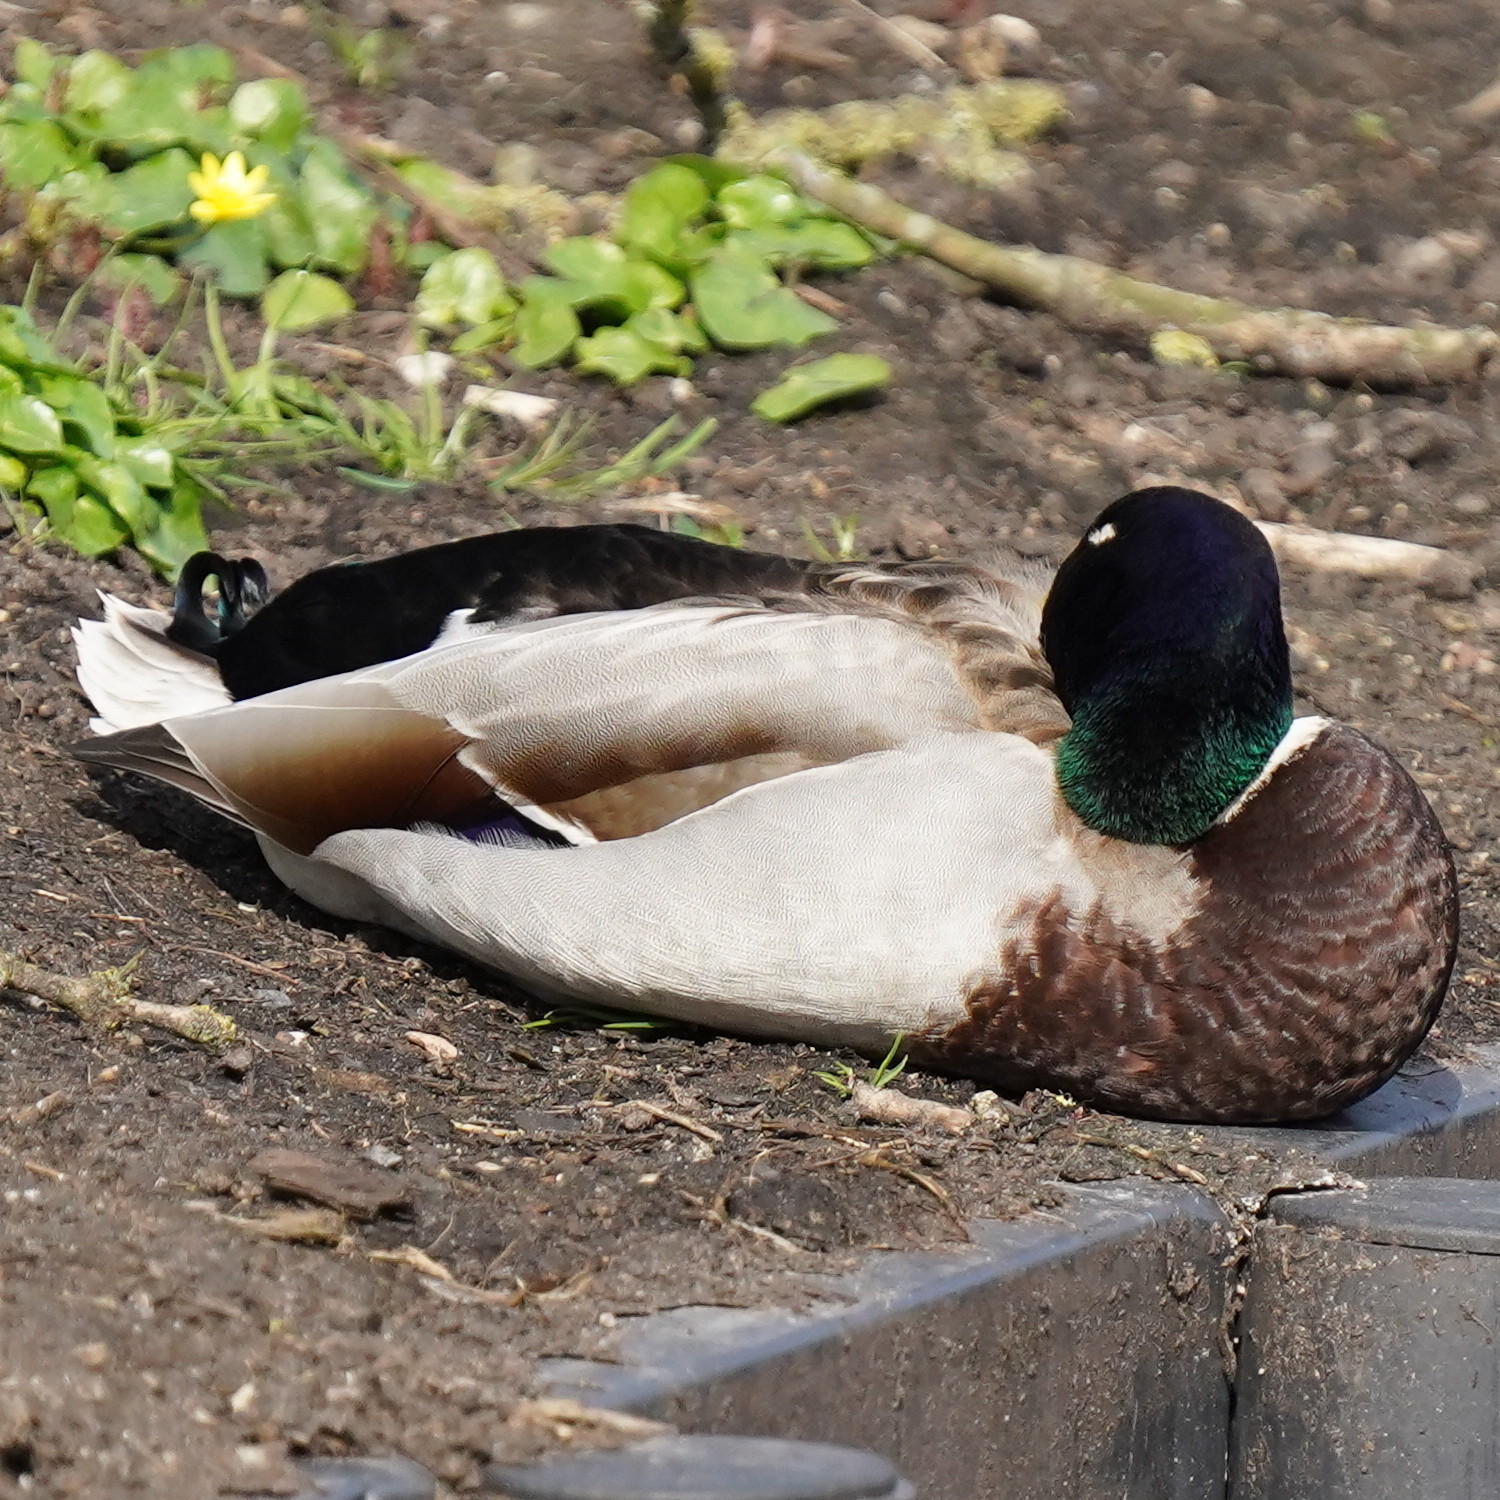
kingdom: Animalia
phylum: Chordata
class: Aves
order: Anseriformes
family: Anatidae
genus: Anas
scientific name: Anas platyrhynchos
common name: Mallard
